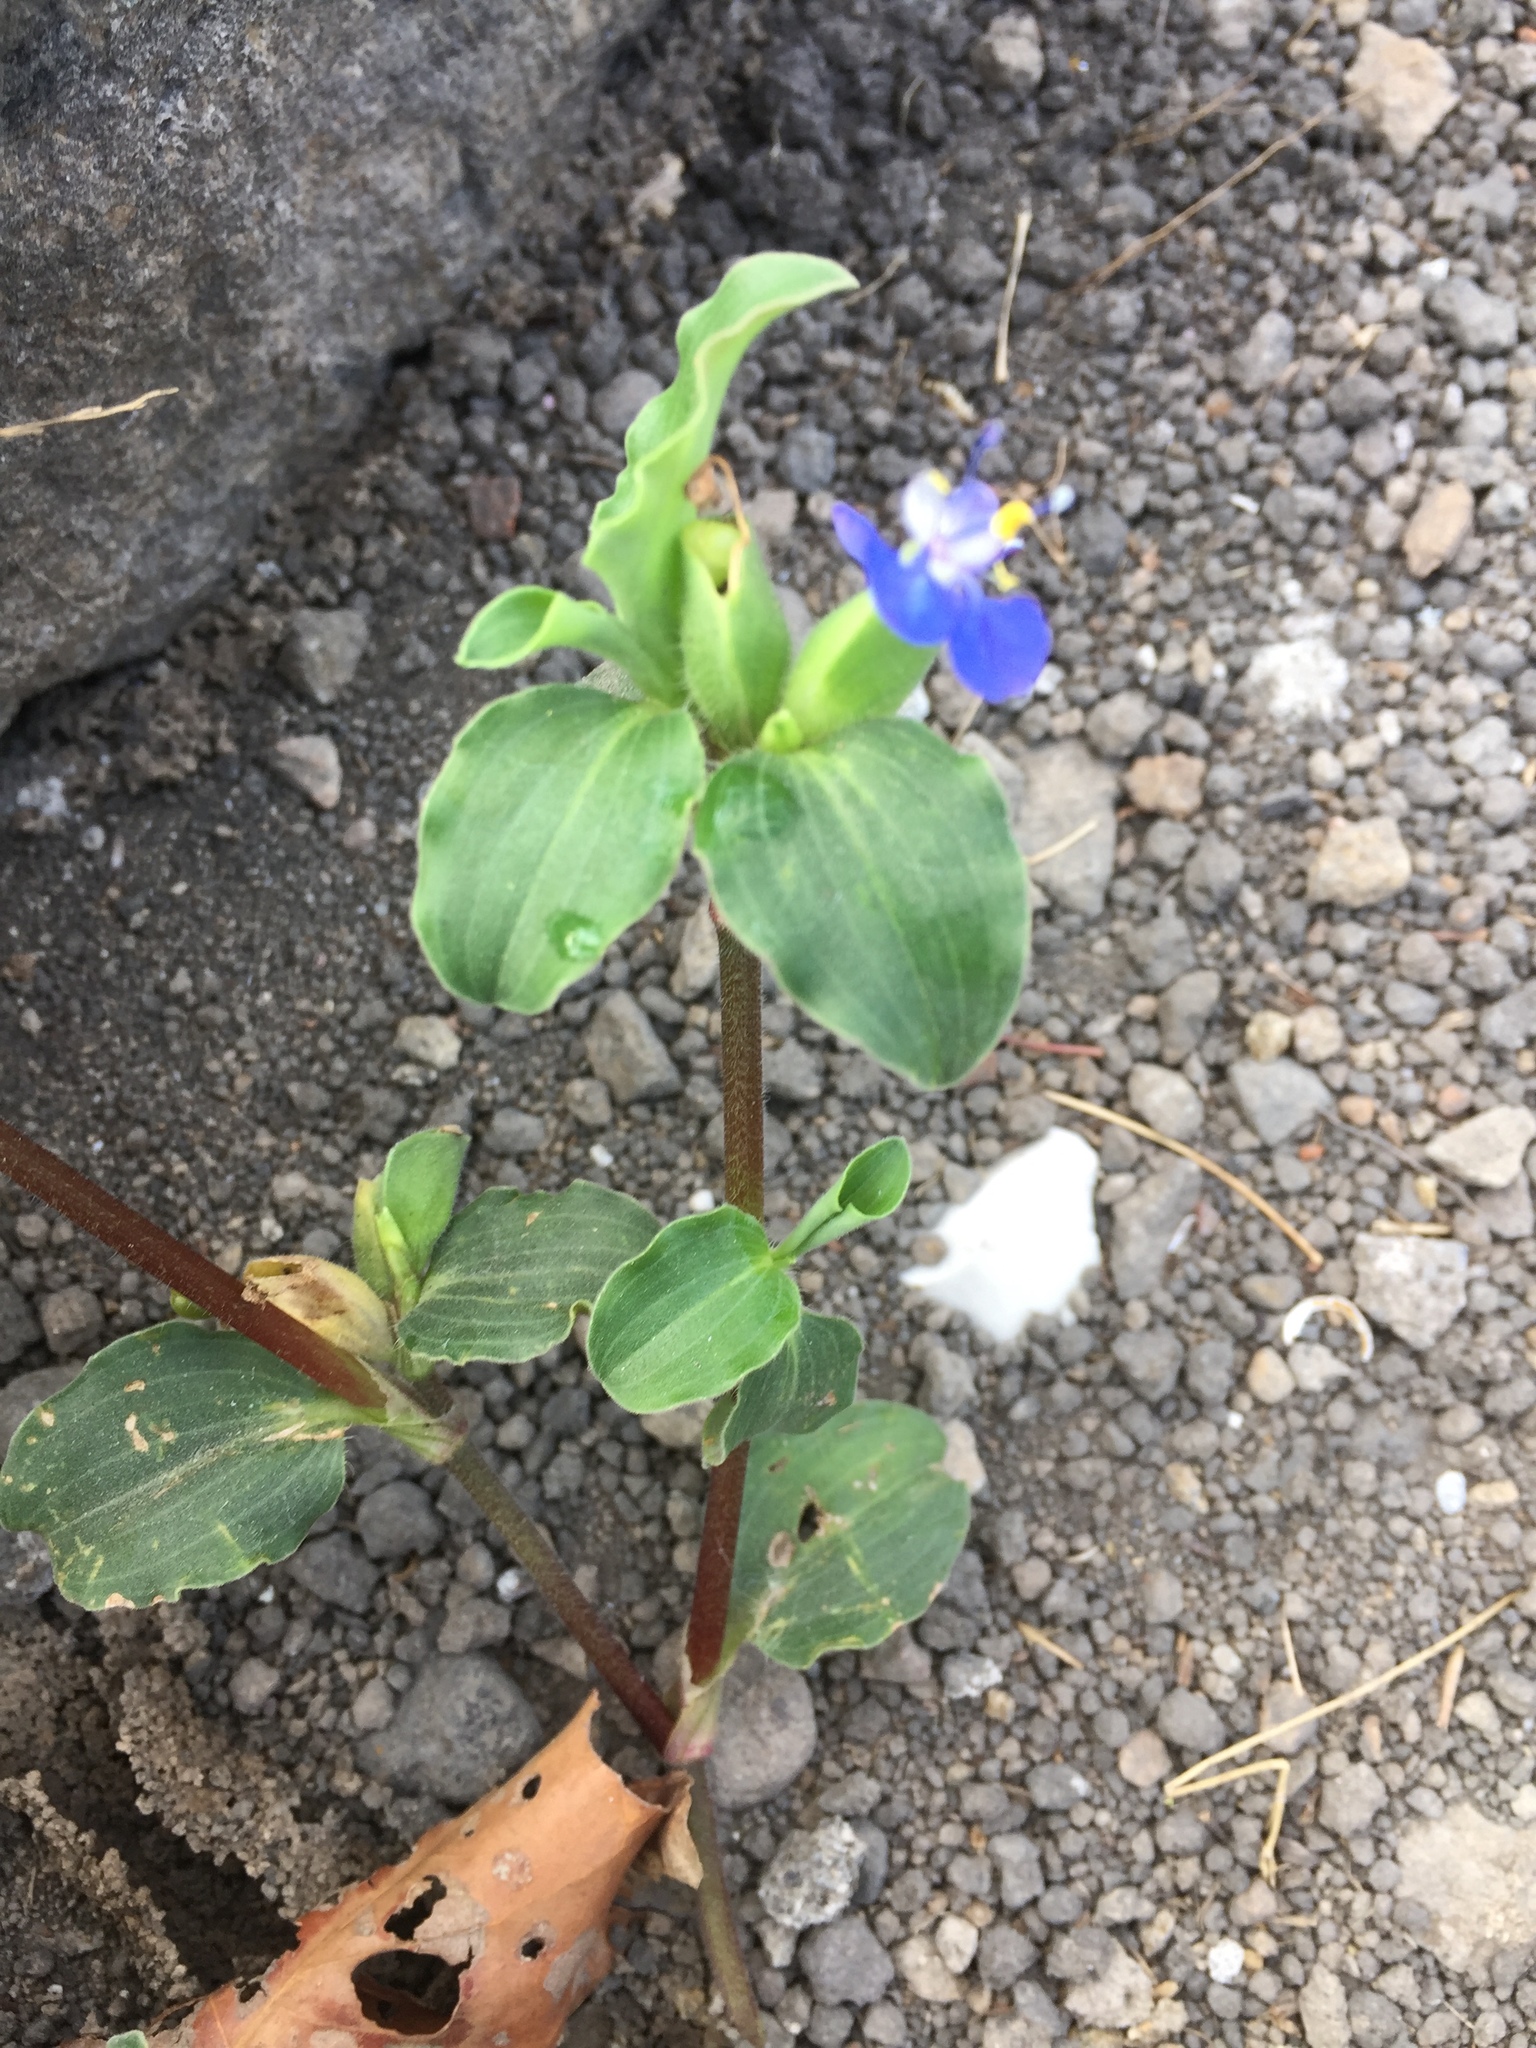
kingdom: Plantae
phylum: Tracheophyta
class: Liliopsida
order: Commelinales
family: Commelinaceae
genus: Commelina
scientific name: Commelina benghalensis
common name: Jio
